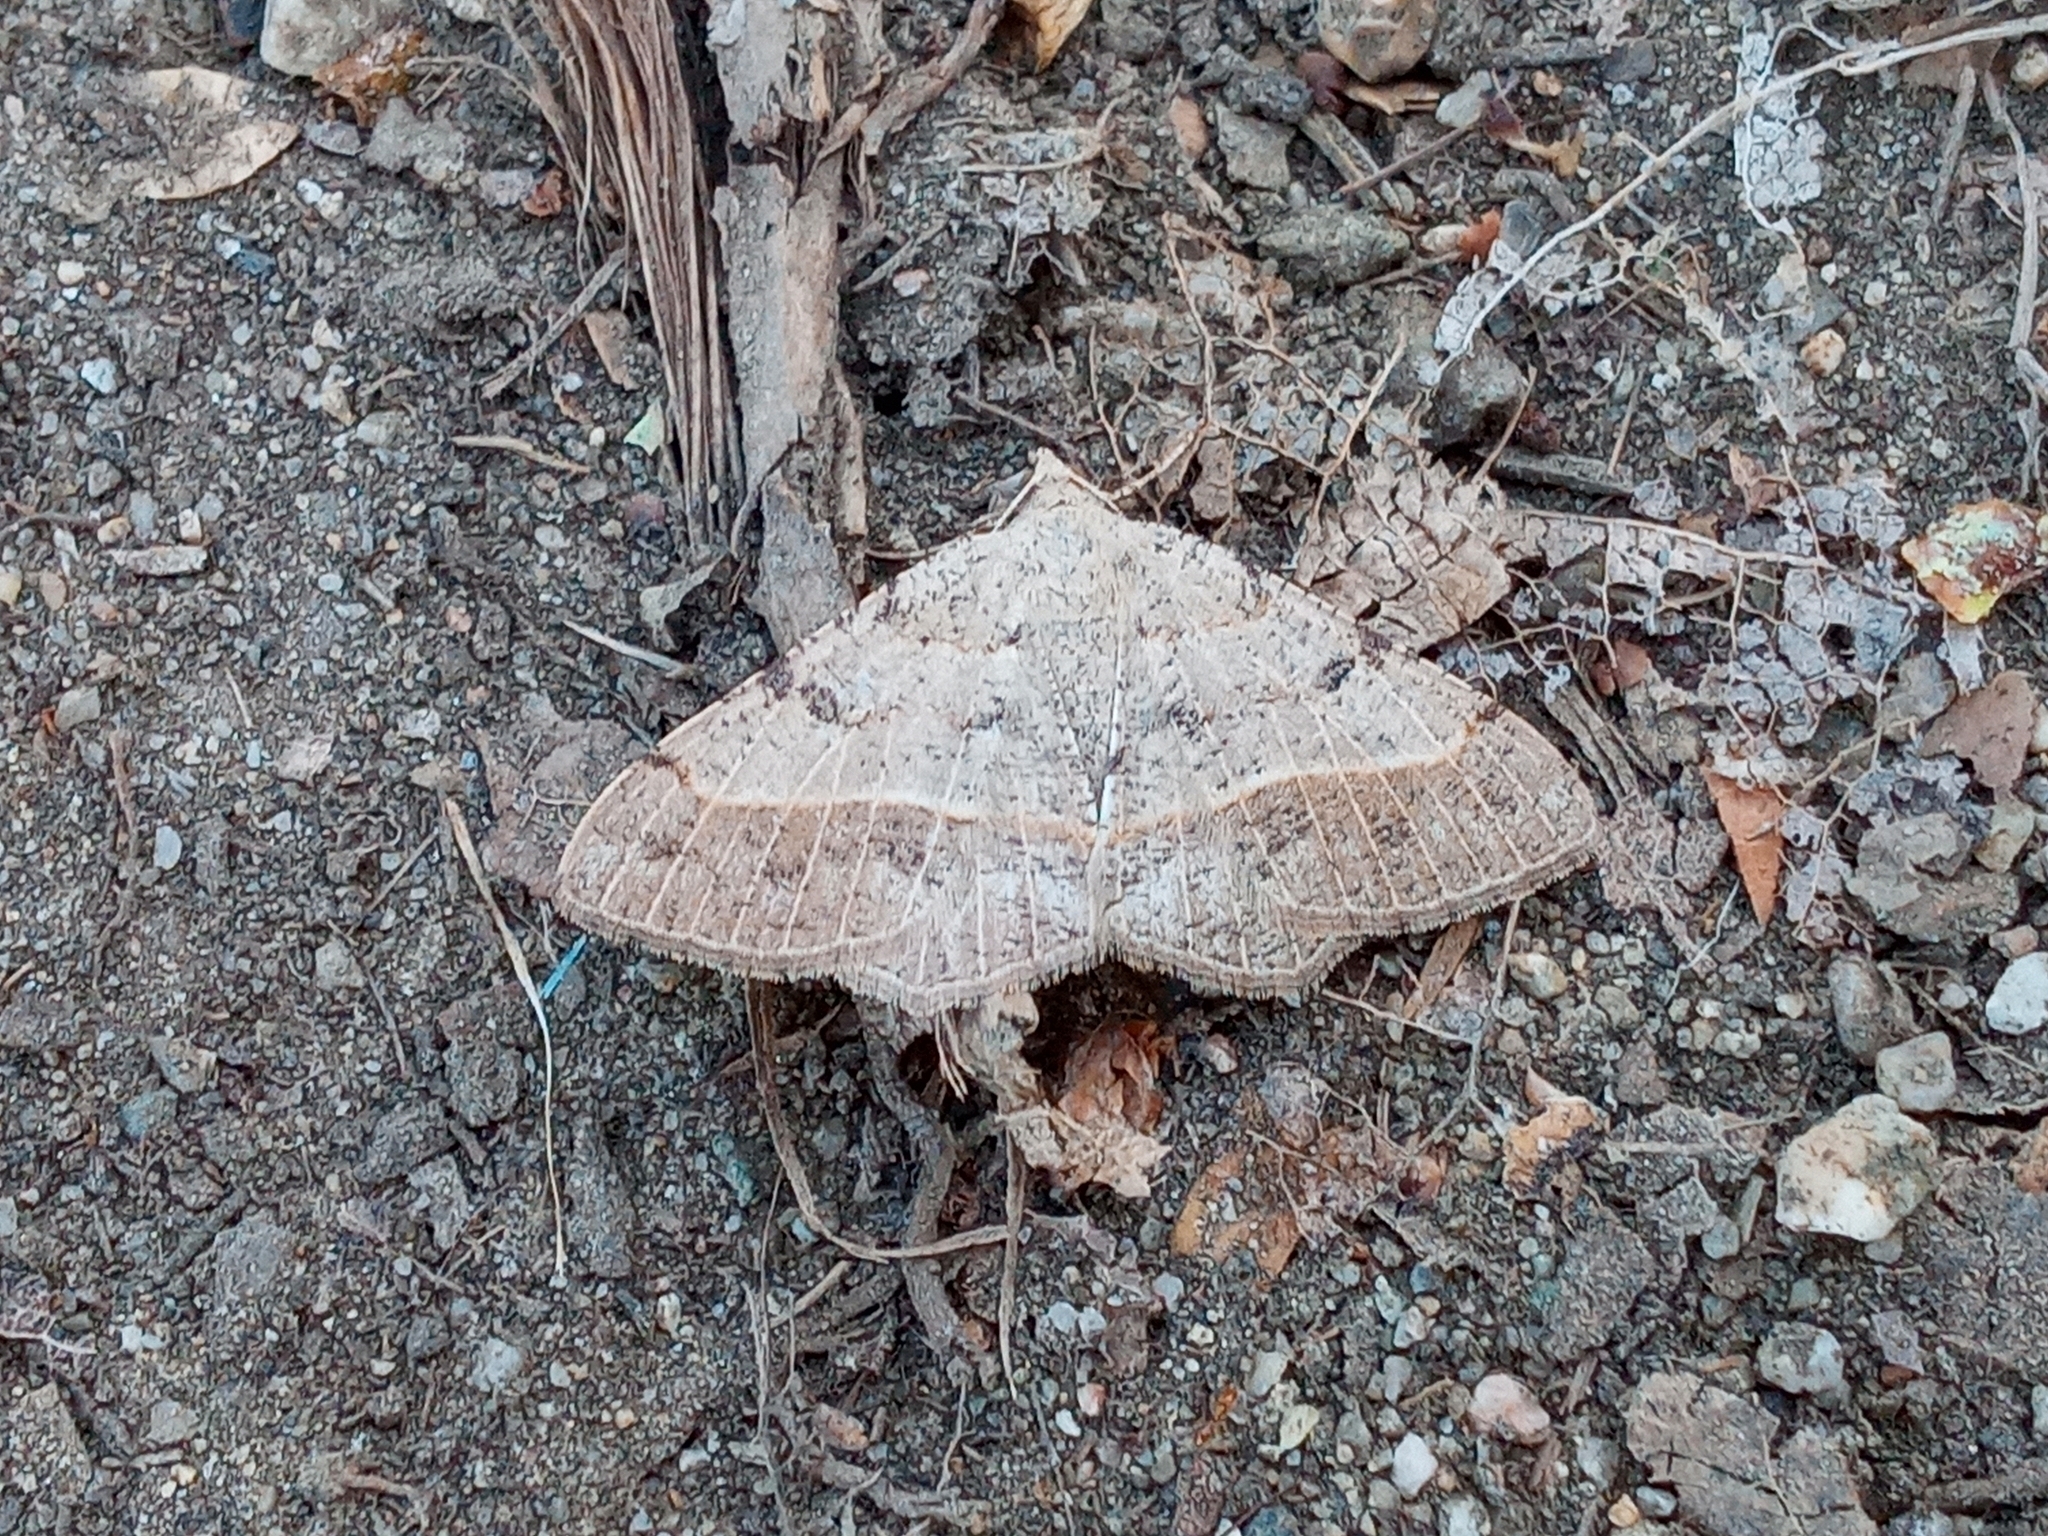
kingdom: Animalia
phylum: Arthropoda
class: Insecta
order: Lepidoptera
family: Geometridae
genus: Digrammia
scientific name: Digrammia irrorata
